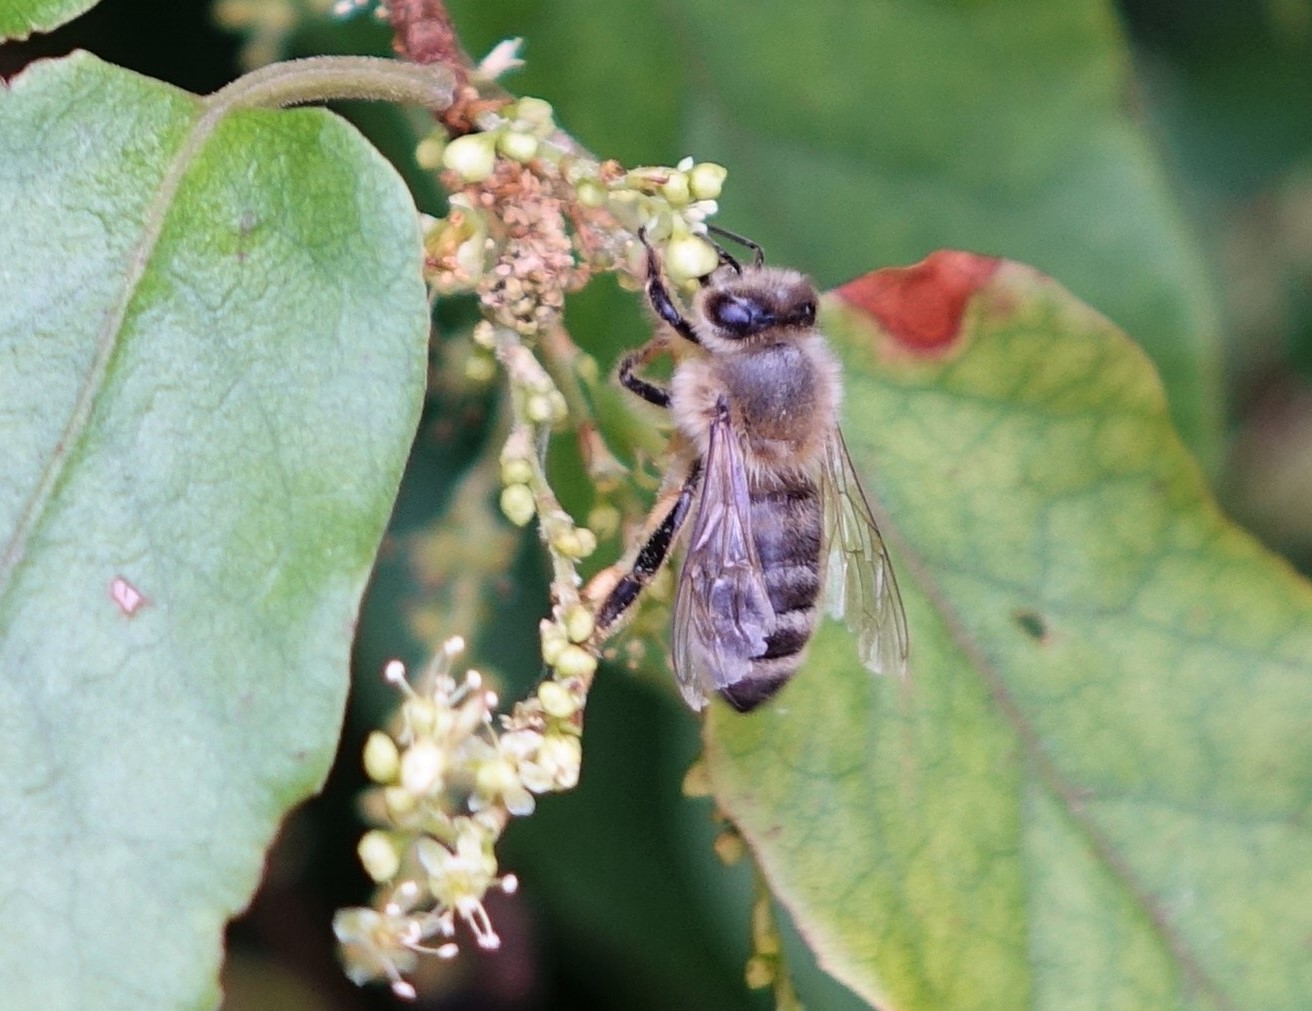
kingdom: Animalia
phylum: Arthropoda
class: Insecta
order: Hymenoptera
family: Apidae
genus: Apis
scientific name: Apis mellifera
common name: Honey bee
